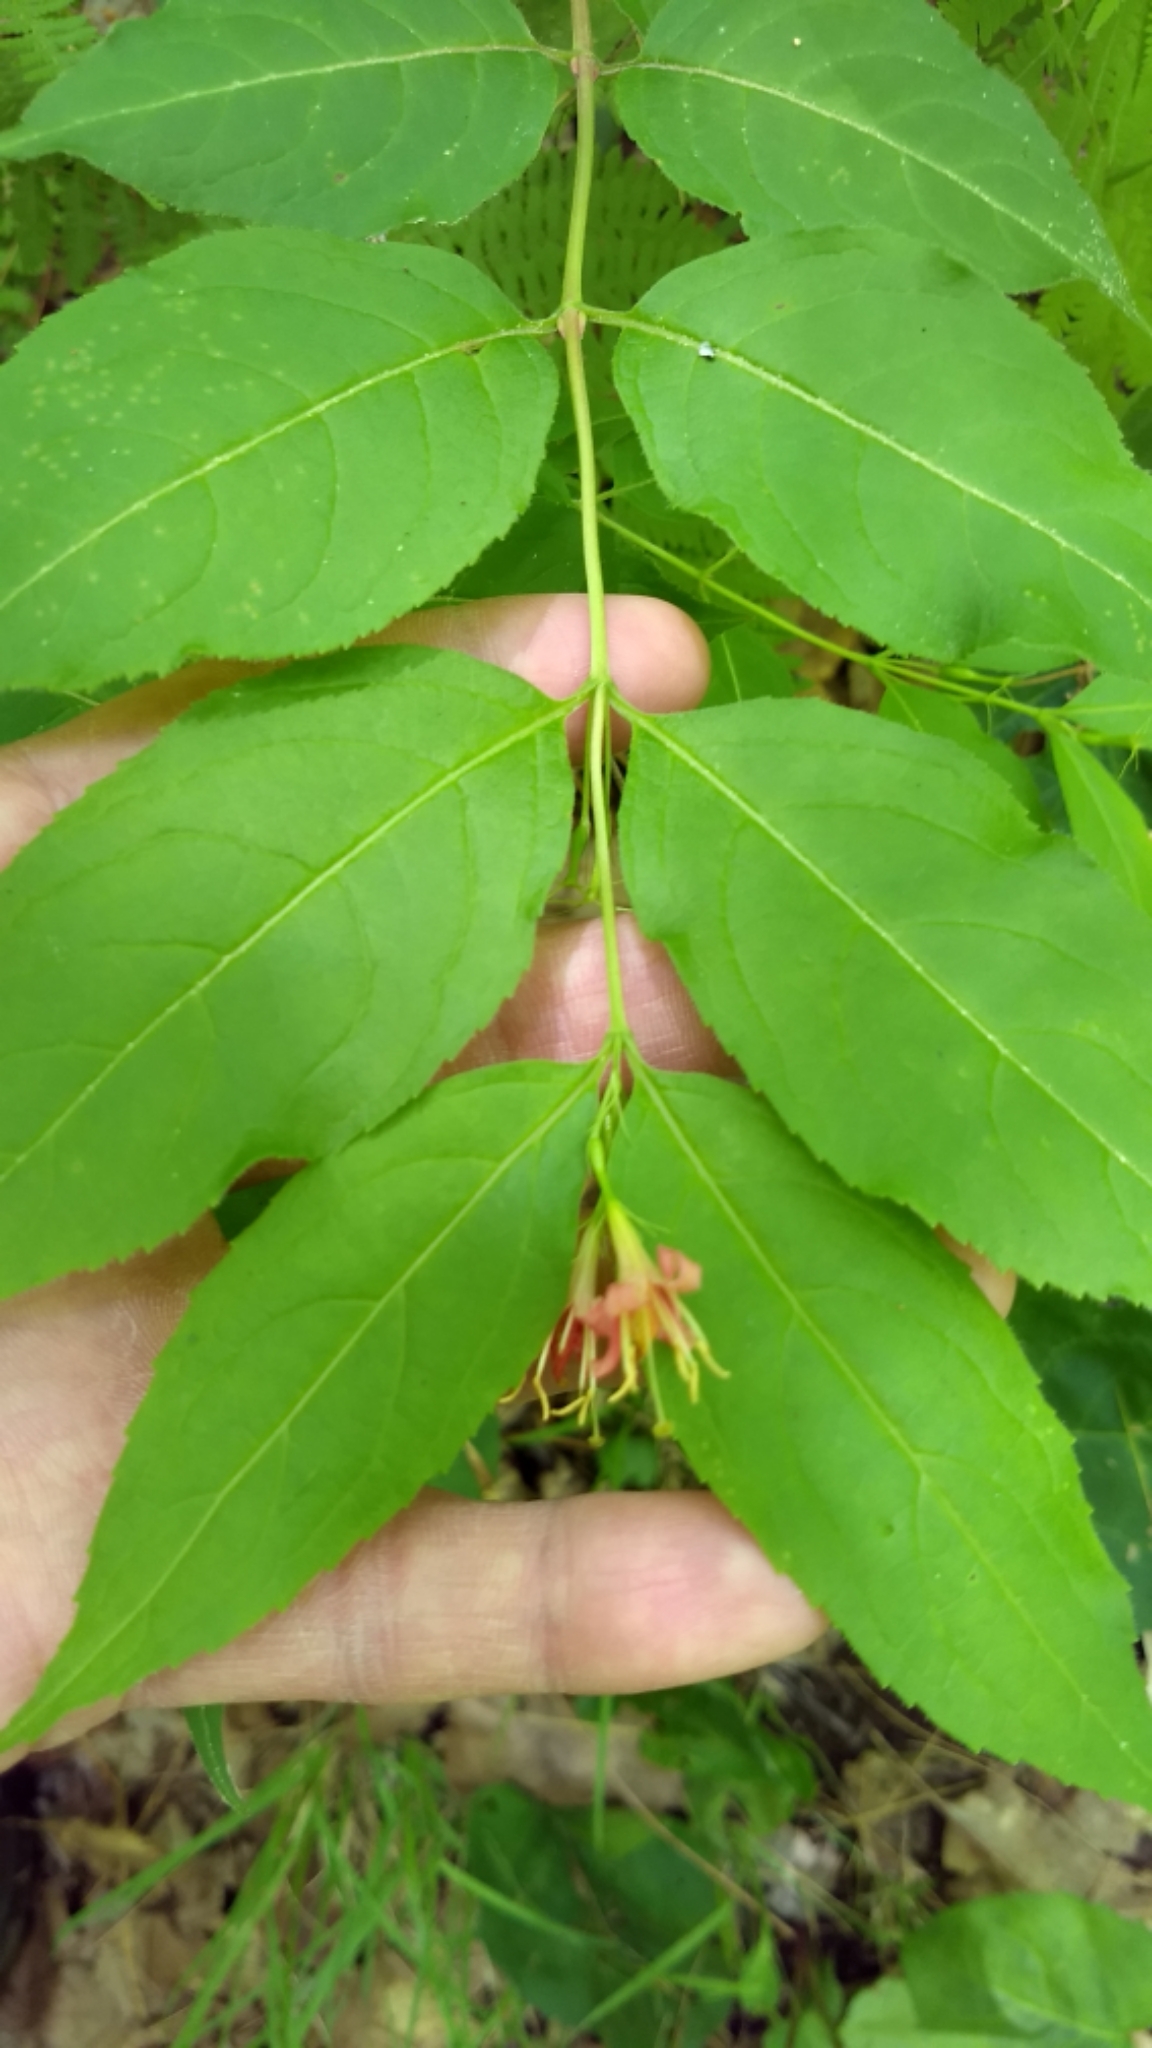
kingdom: Plantae
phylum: Tracheophyta
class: Magnoliopsida
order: Dipsacales
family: Caprifoliaceae
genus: Diervilla
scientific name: Diervilla lonicera
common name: Bush-honeysuckle
